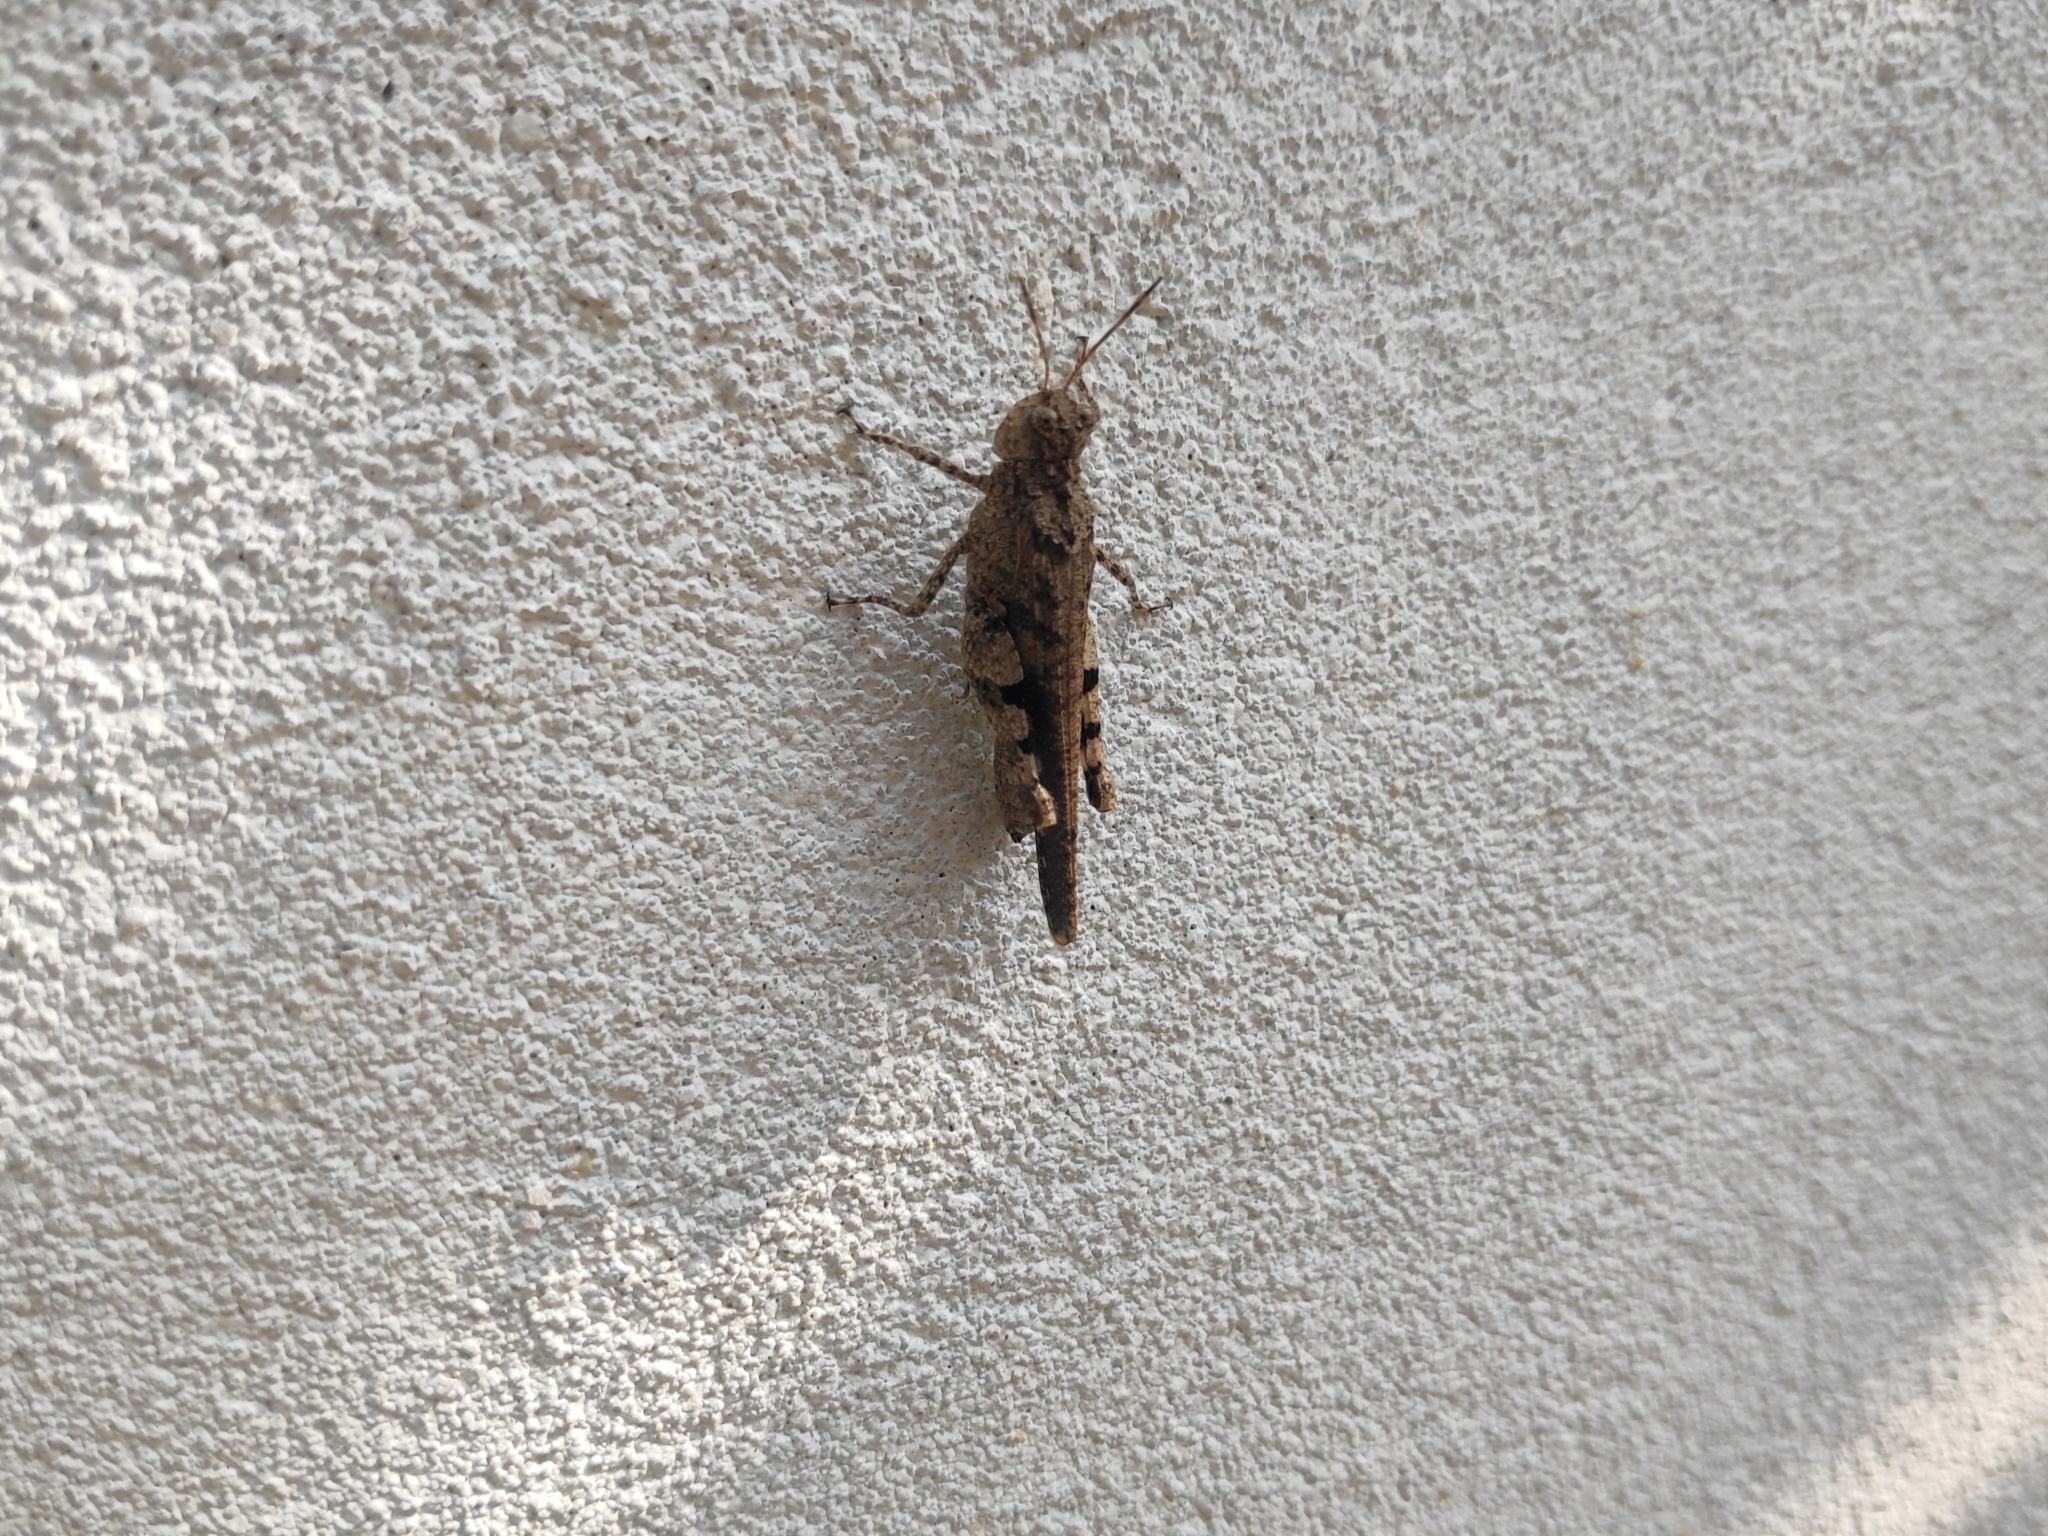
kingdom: Animalia
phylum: Arthropoda
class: Insecta
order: Orthoptera
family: Acrididae
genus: Trilophidia
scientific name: Trilophidia annulata
